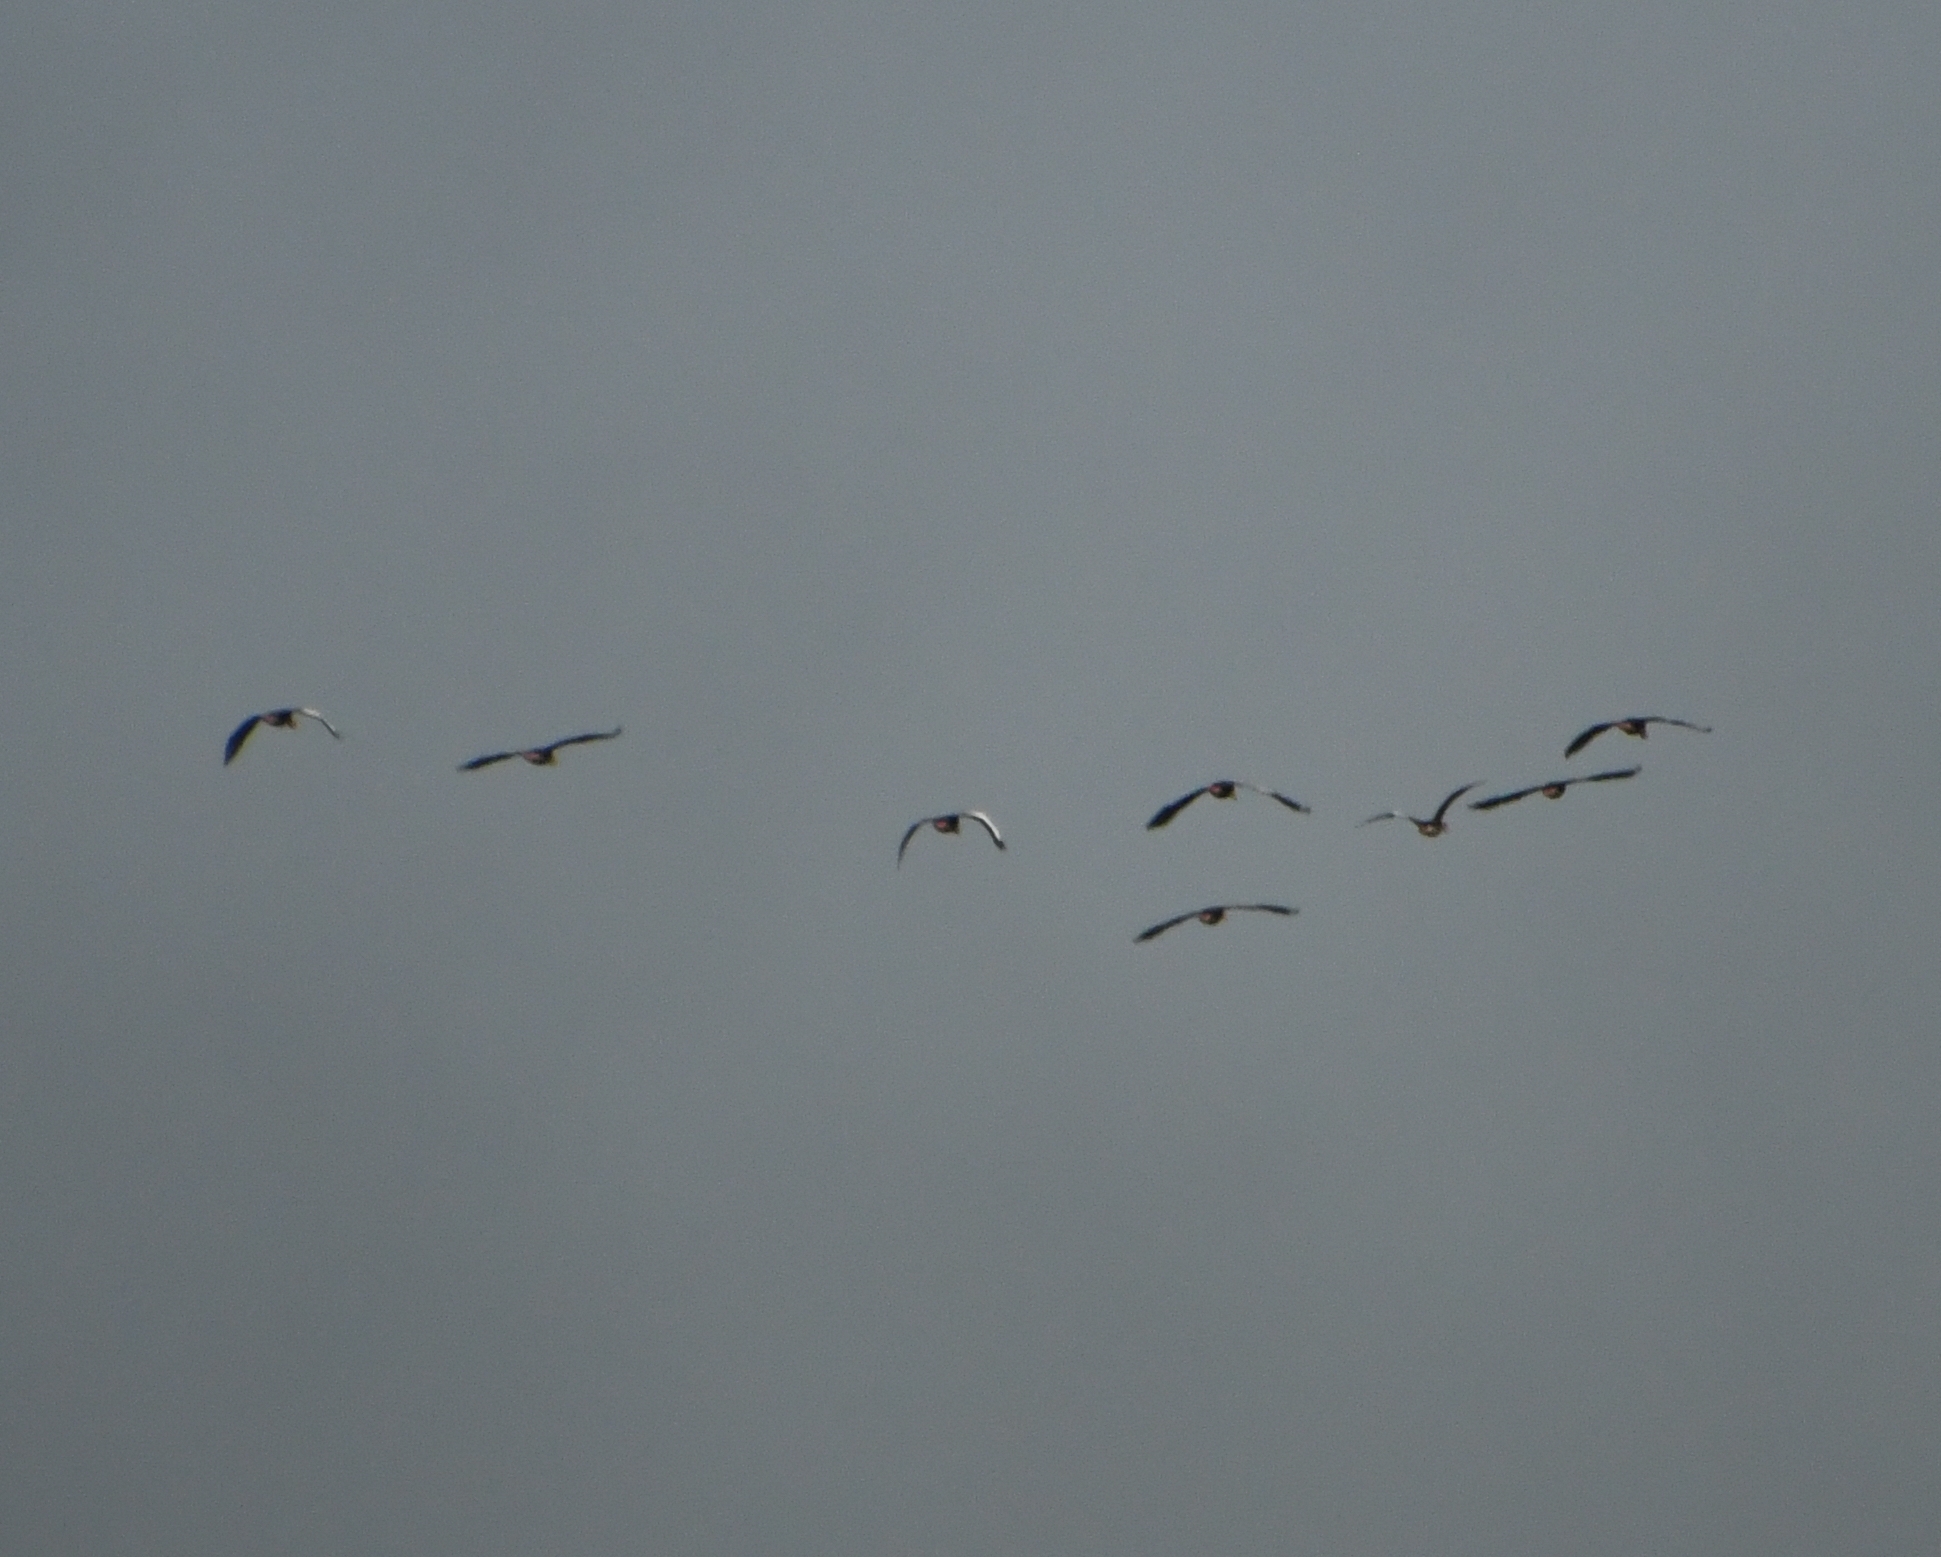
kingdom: Animalia
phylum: Chordata
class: Aves
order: Anseriformes
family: Anatidae
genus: Dendrocygna
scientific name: Dendrocygna autumnalis
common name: Black-bellied whistling duck
